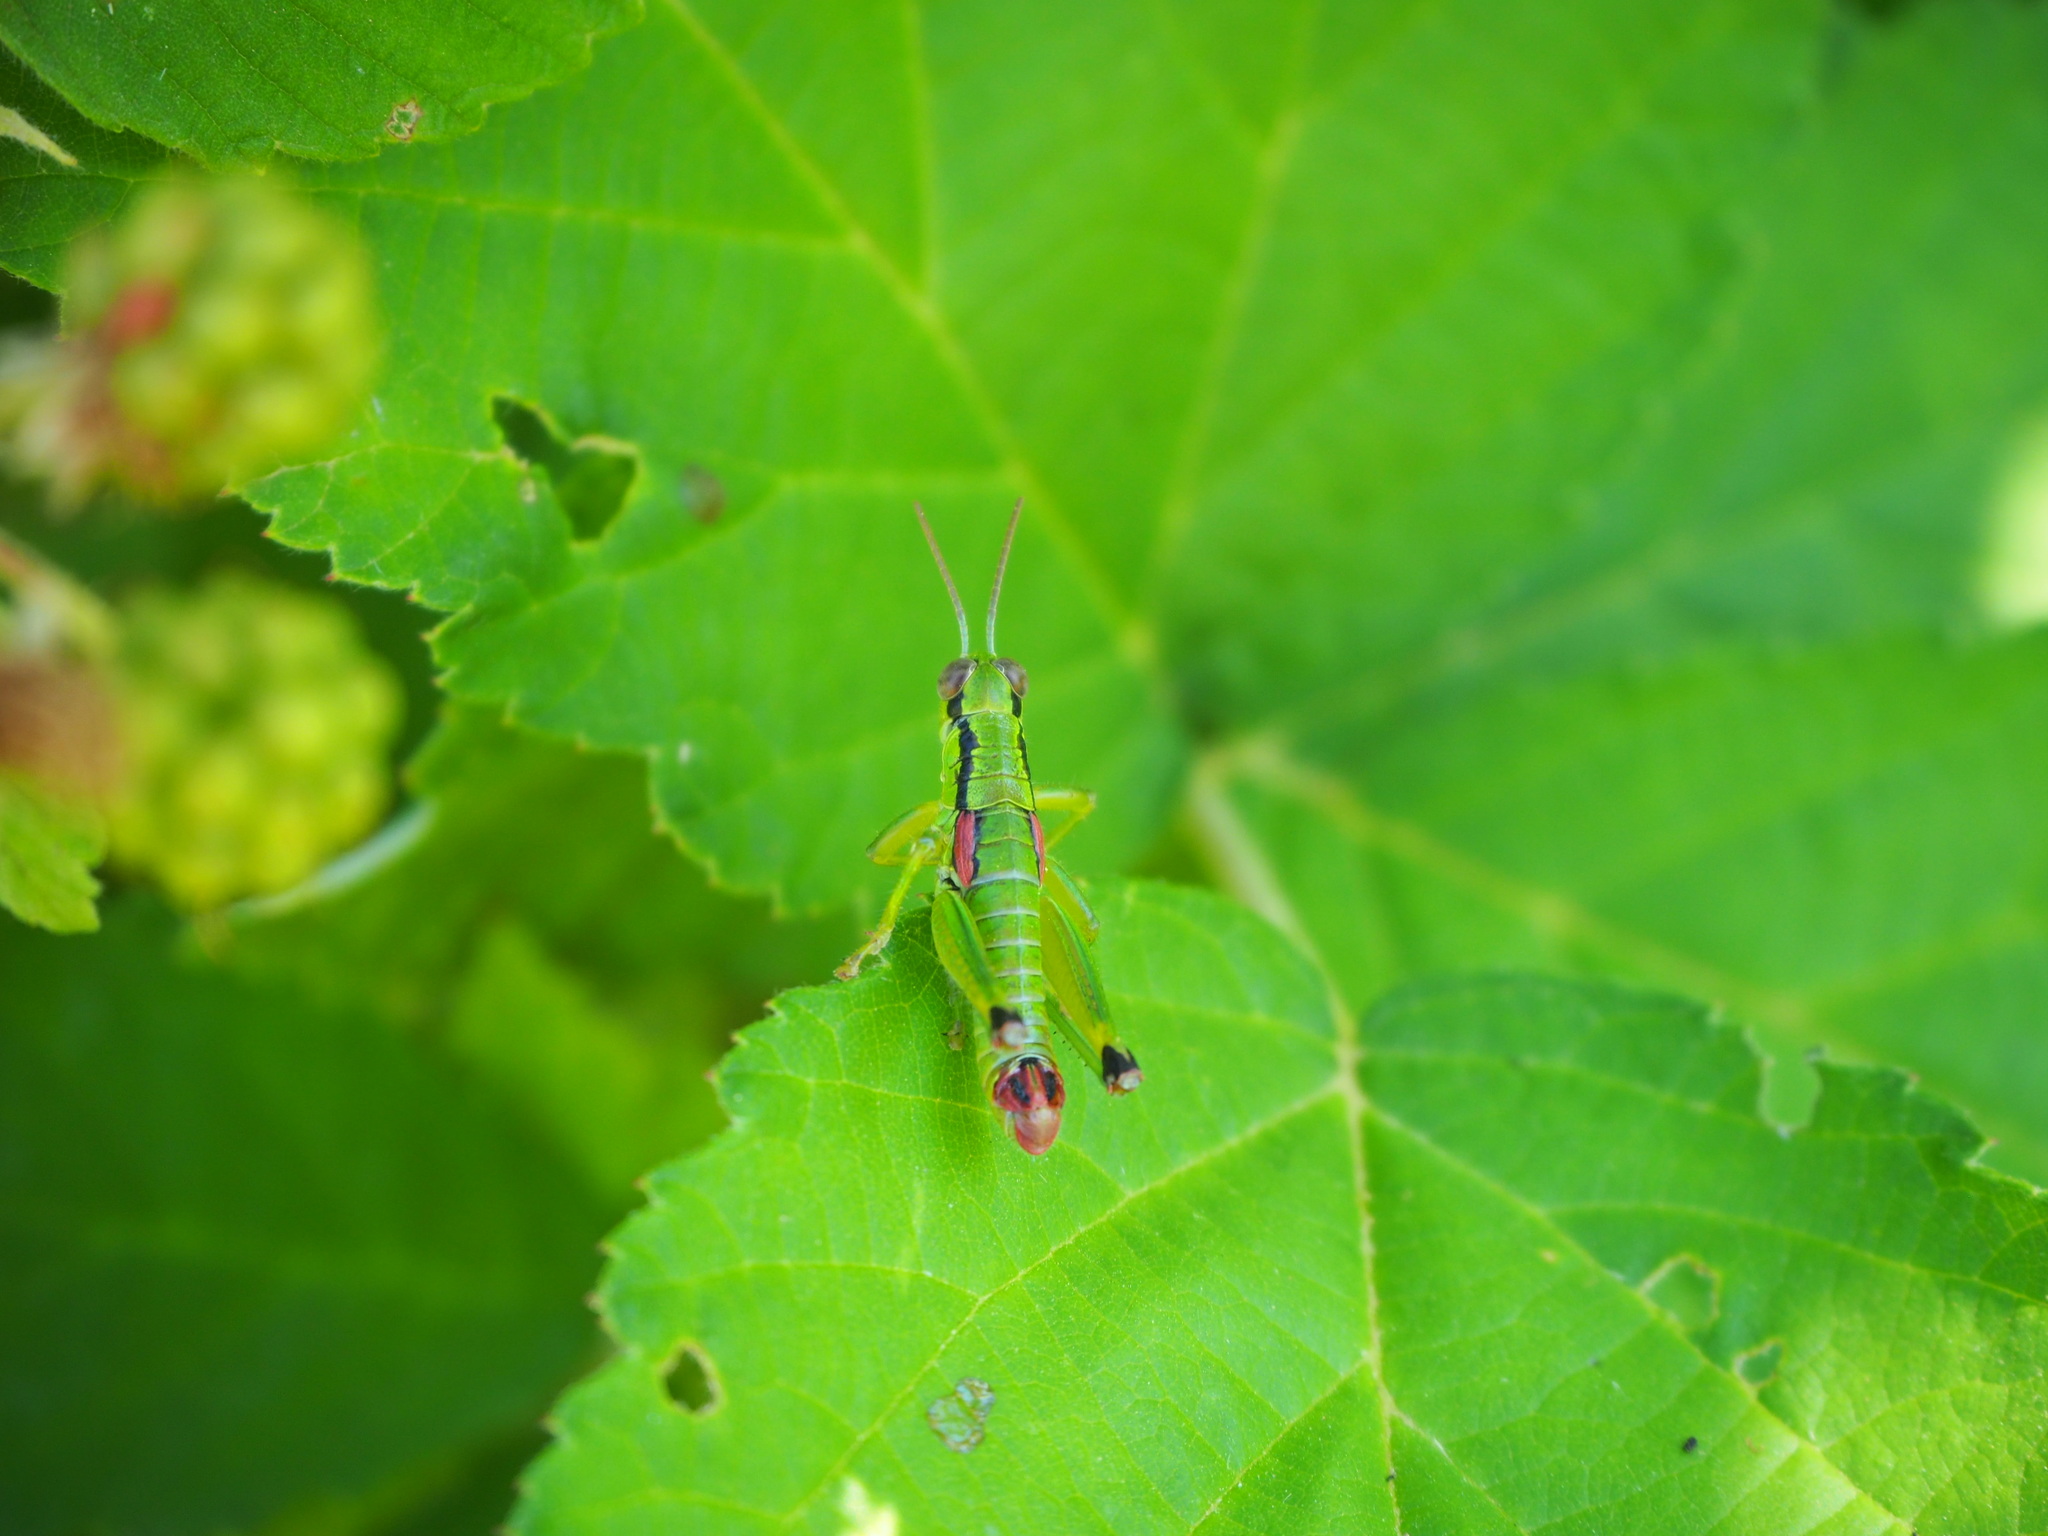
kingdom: Animalia
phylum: Arthropoda
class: Insecta
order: Orthoptera
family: Acrididae
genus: Odontopodisma
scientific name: Odontopodisma decipiens
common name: Cheating mountain grasshopper
